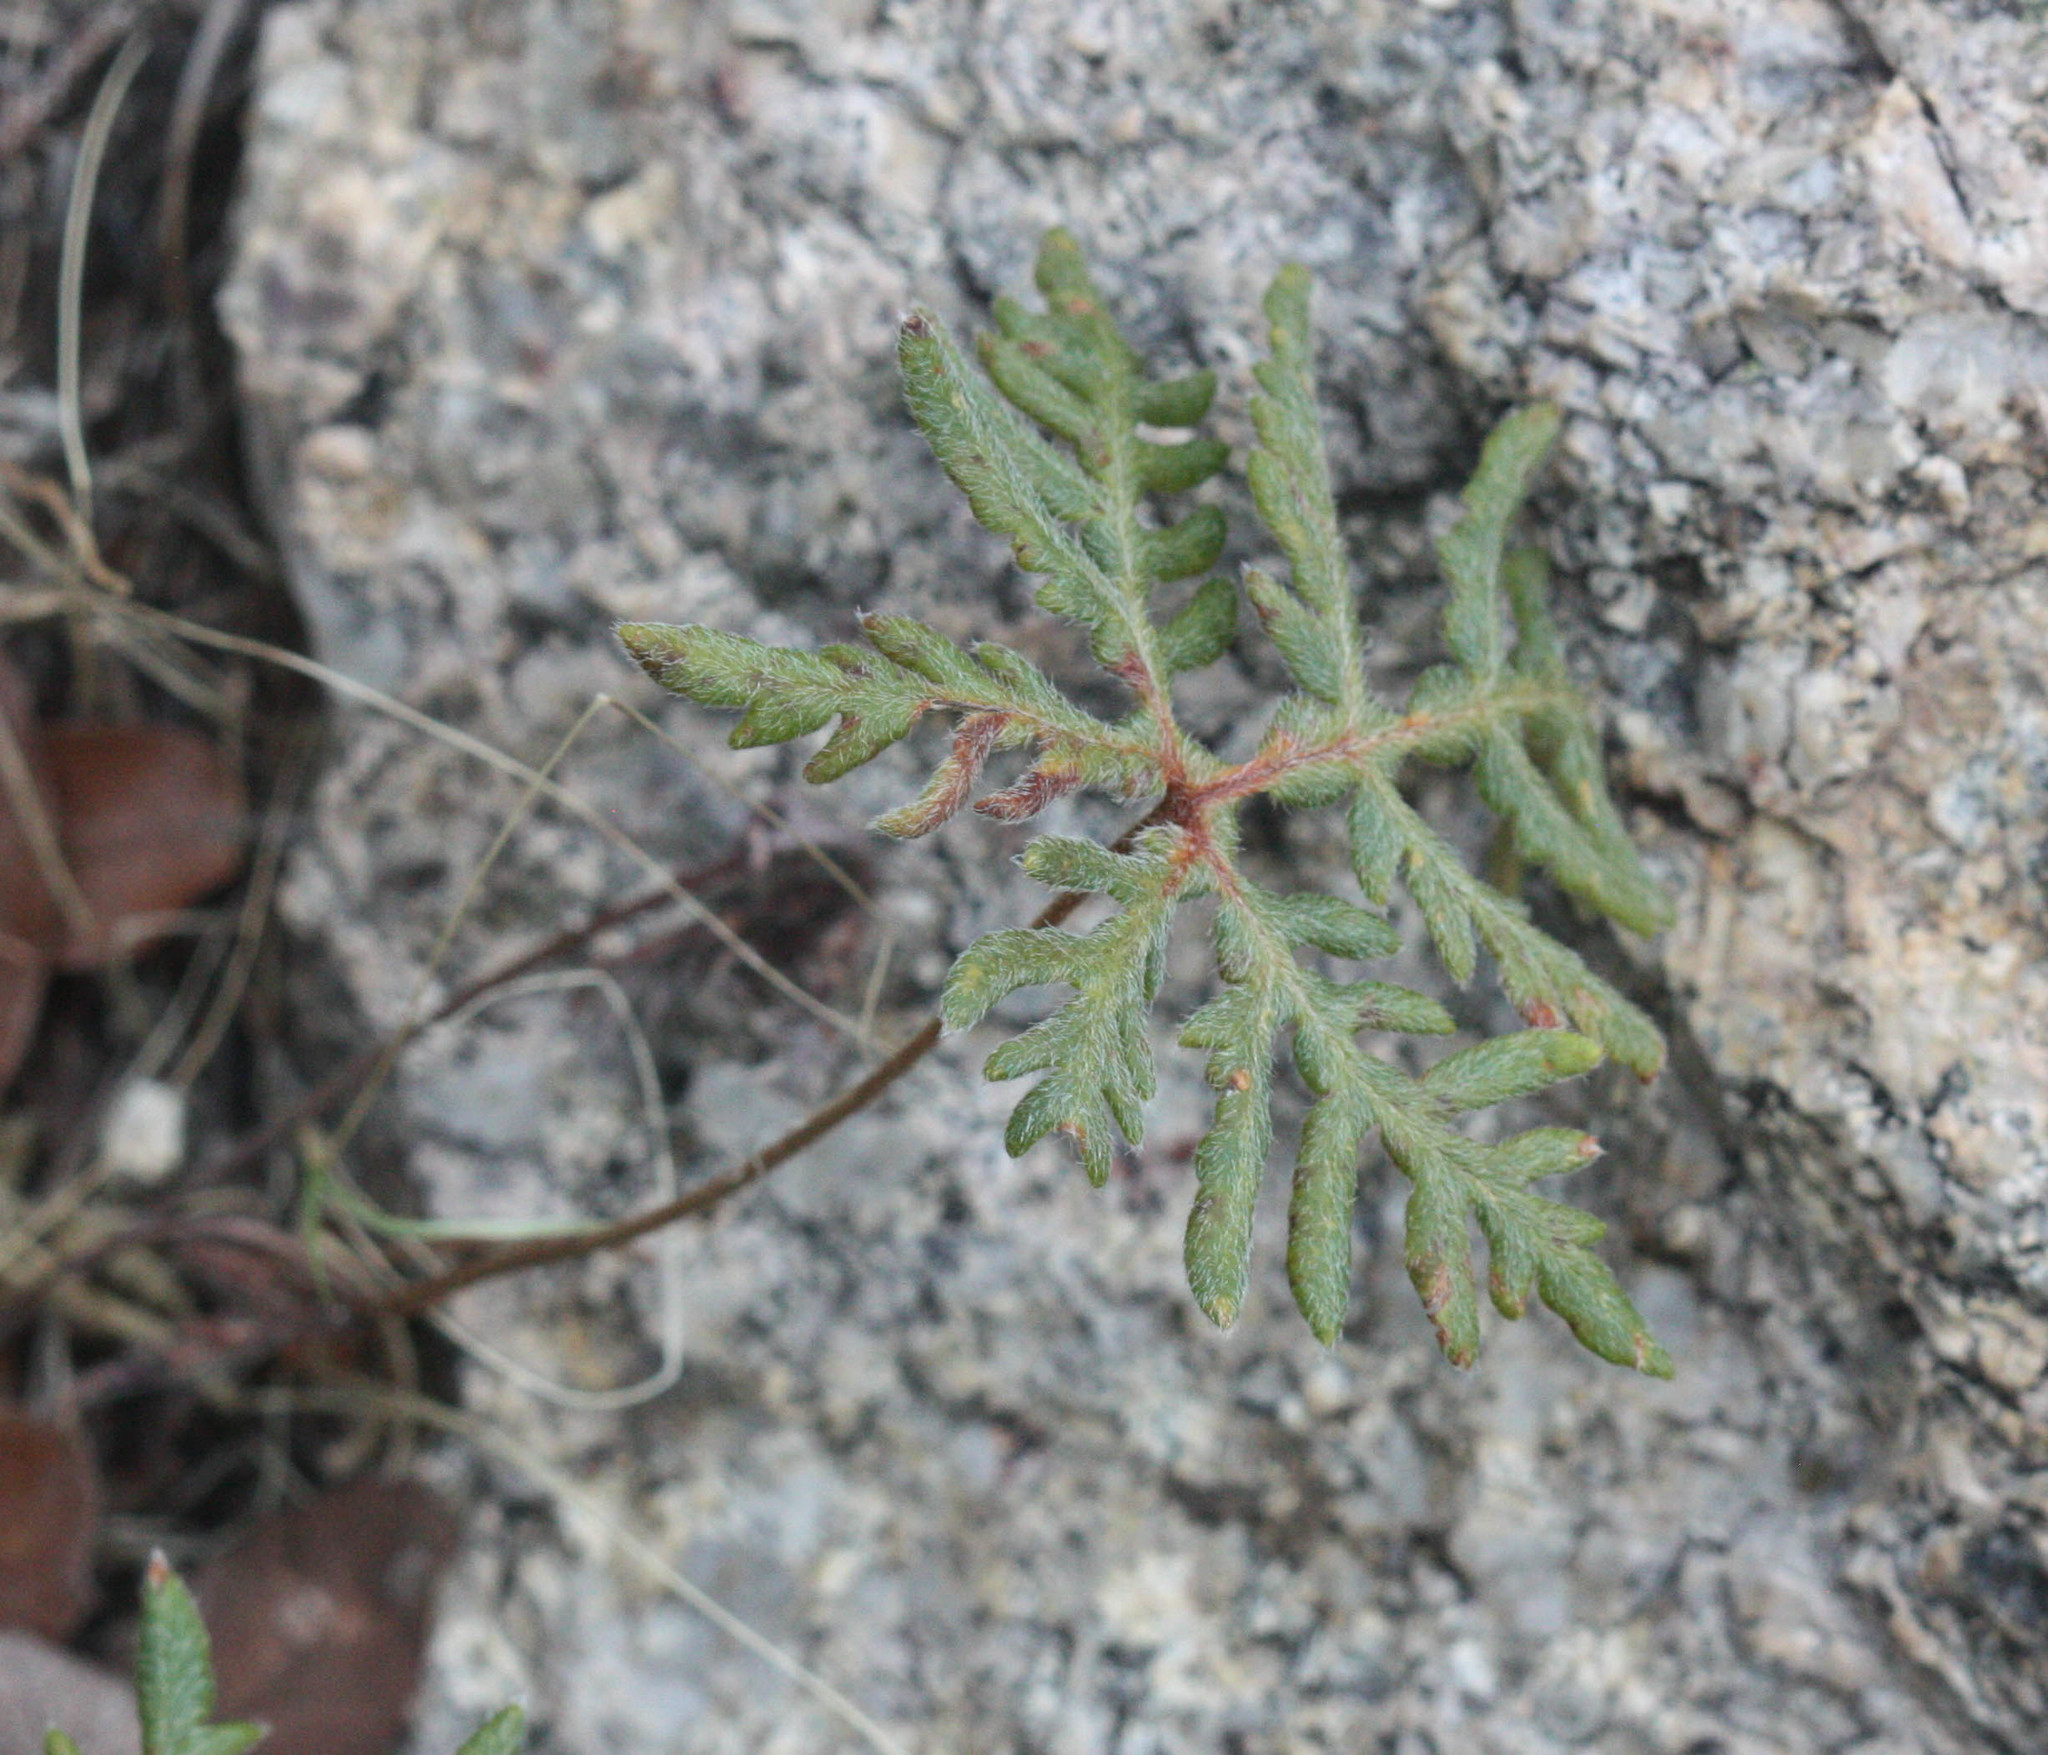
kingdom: Plantae
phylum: Tracheophyta
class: Polypodiopsida
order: Polypodiales
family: Pteridaceae
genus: Bommeria
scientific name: Bommeria hispida
